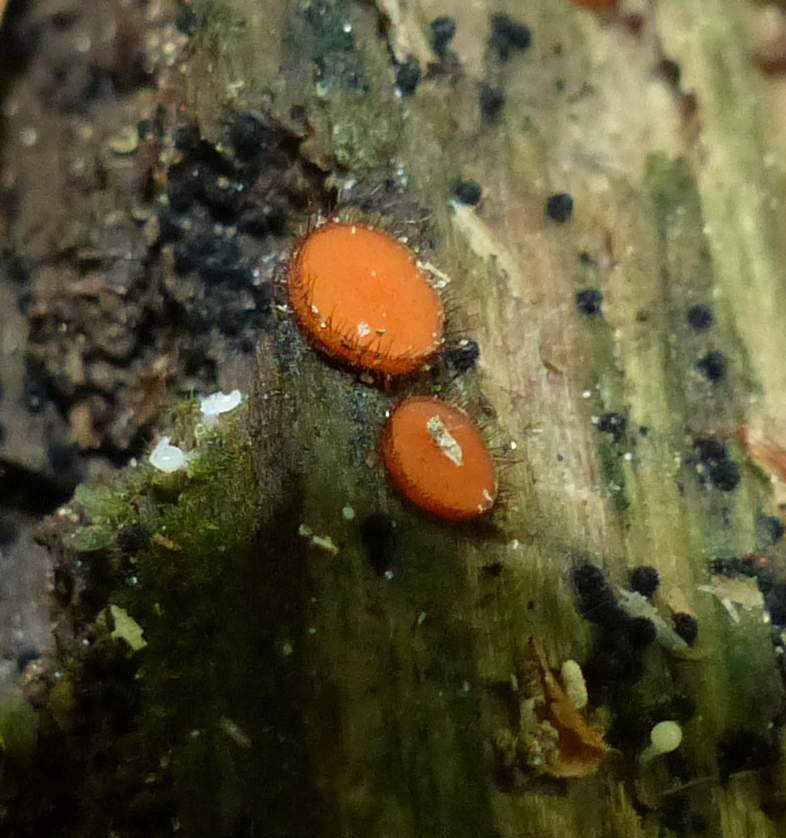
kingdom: Fungi
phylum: Ascomycota
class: Pezizomycetes
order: Pezizales
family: Pyronemataceae
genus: Scutellinia
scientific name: Scutellinia
